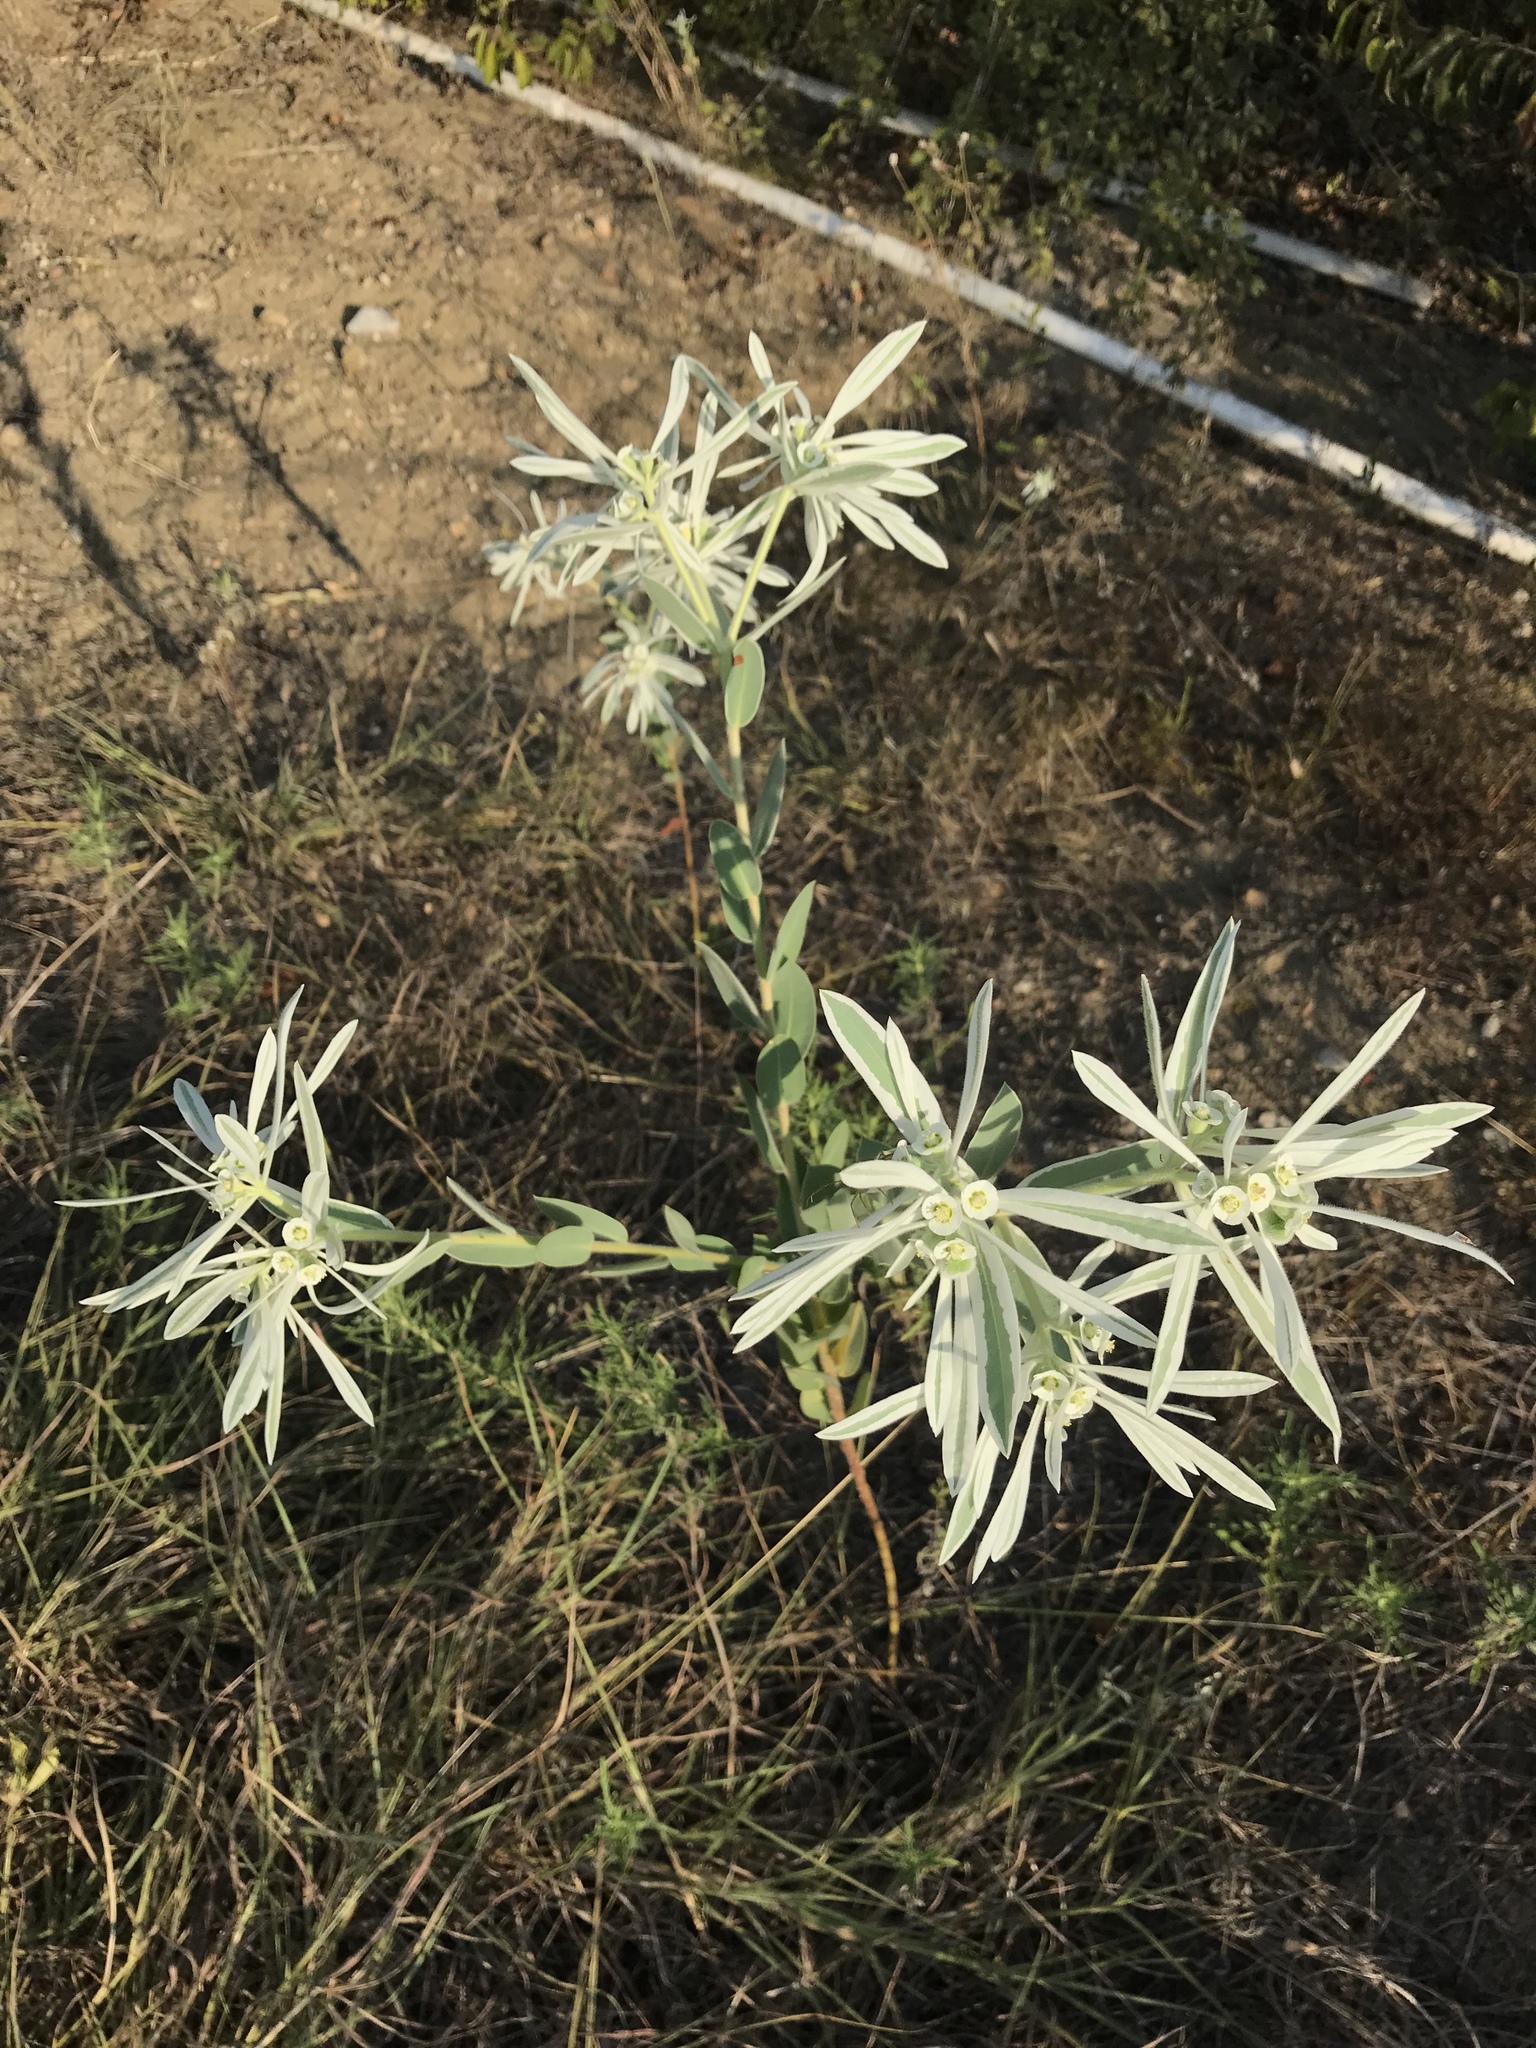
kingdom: Plantae
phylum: Tracheophyta
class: Magnoliopsida
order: Malpighiales
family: Euphorbiaceae
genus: Euphorbia
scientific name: Euphorbia bicolor
